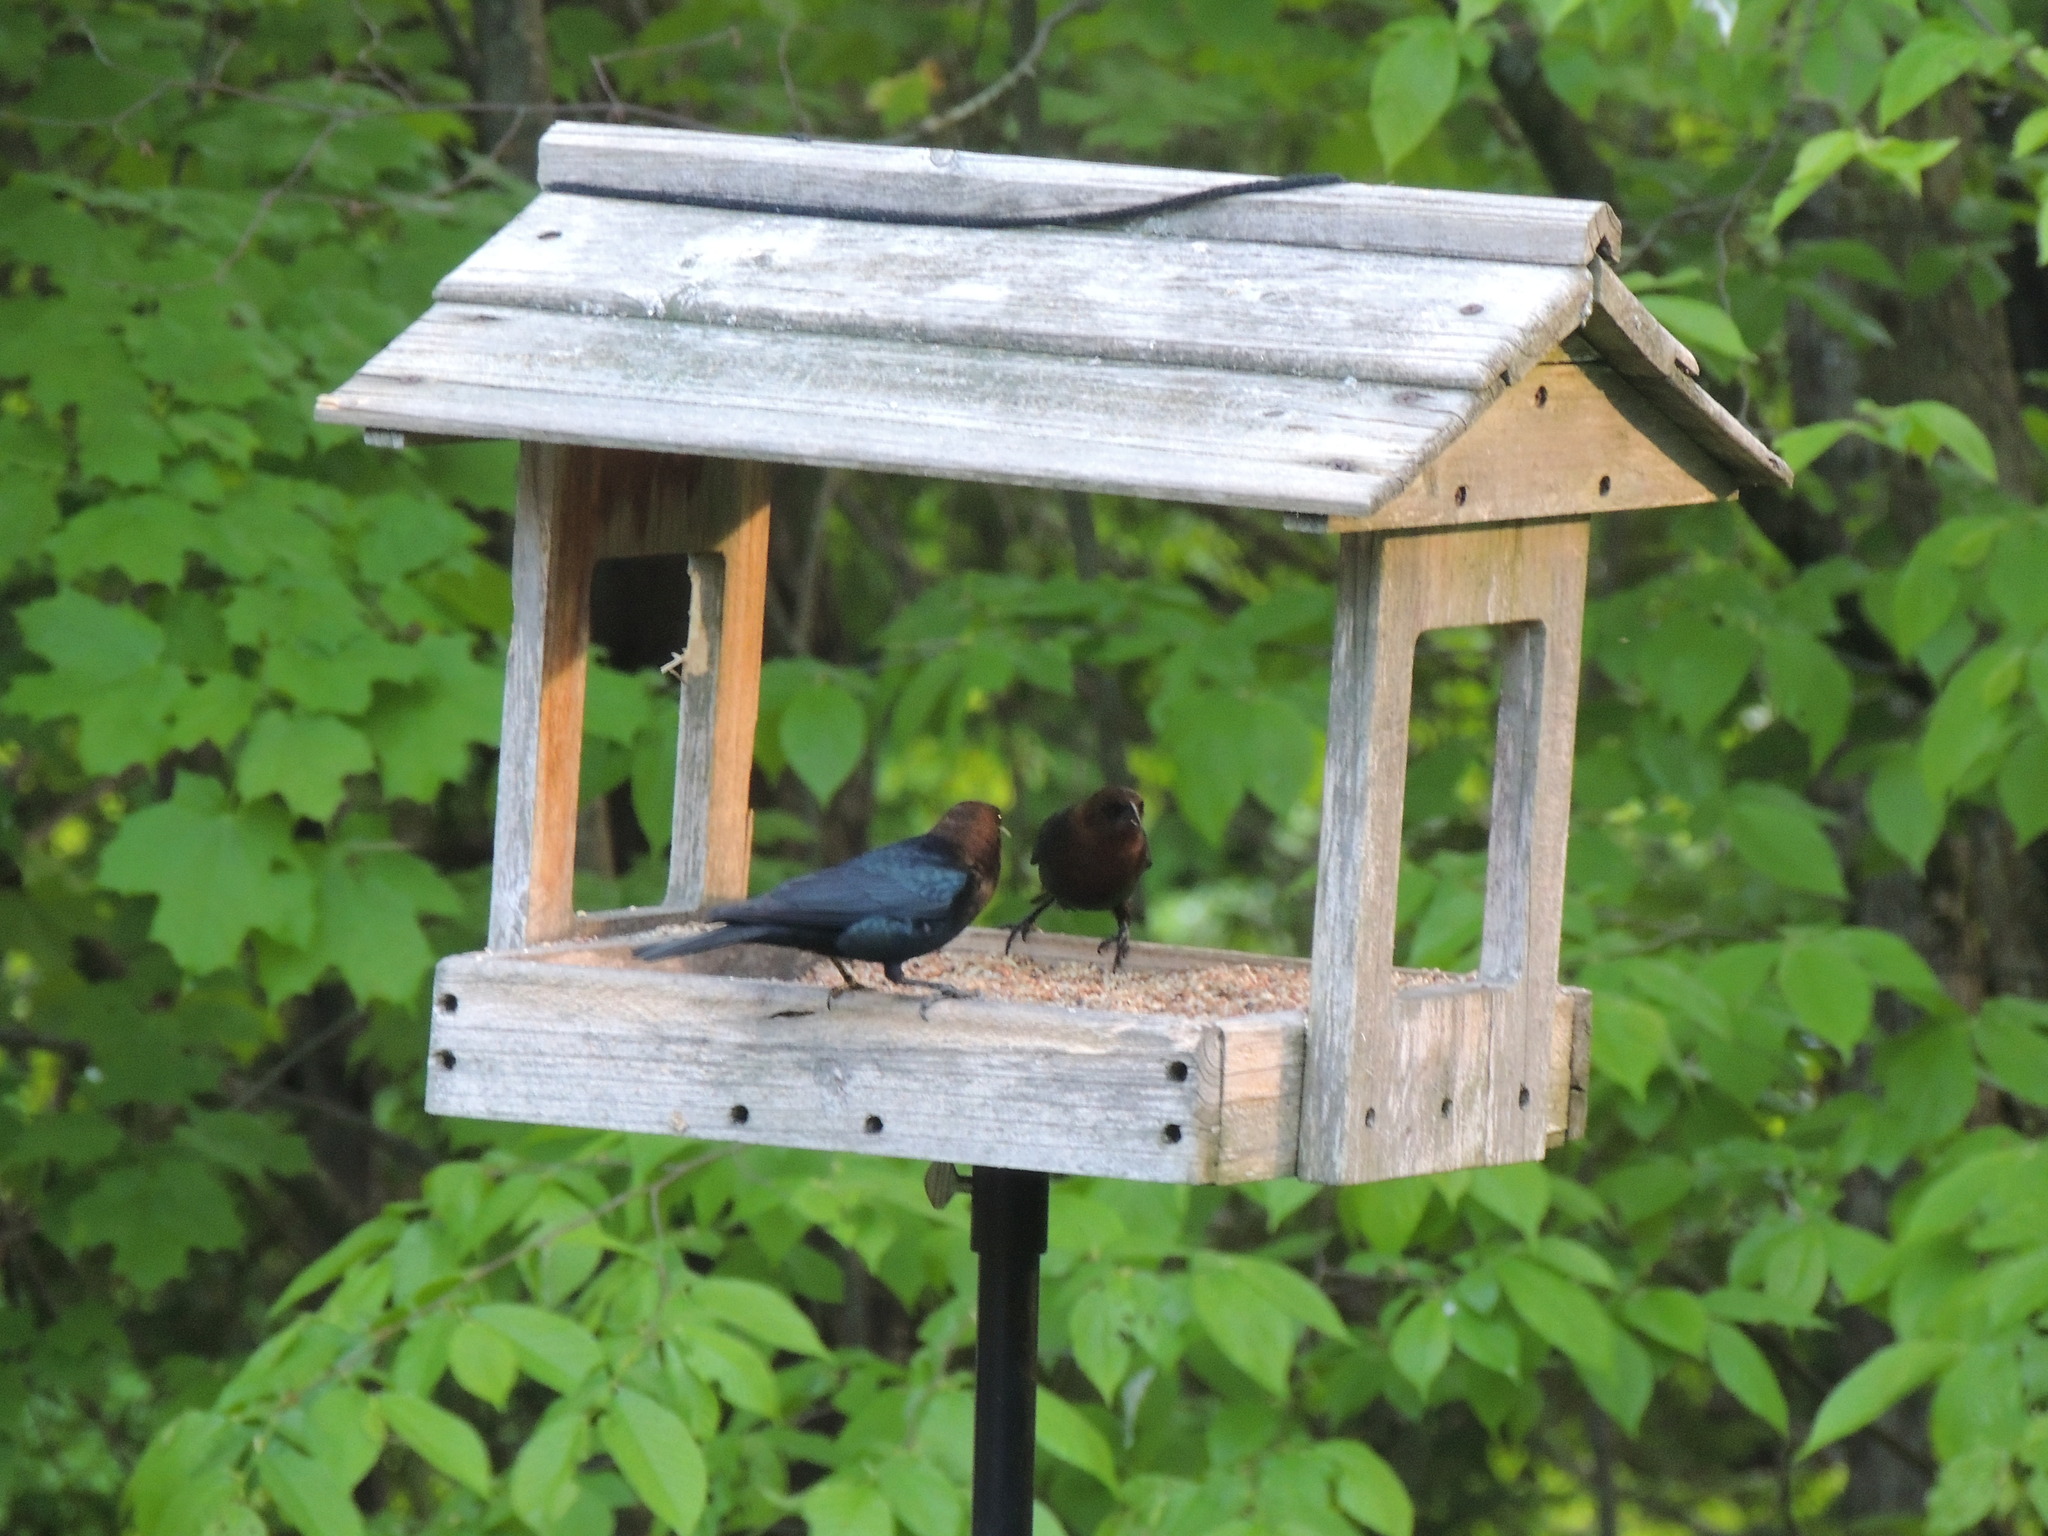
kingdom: Animalia
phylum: Chordata
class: Aves
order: Passeriformes
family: Icteridae
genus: Molothrus
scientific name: Molothrus ater
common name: Brown-headed cowbird
